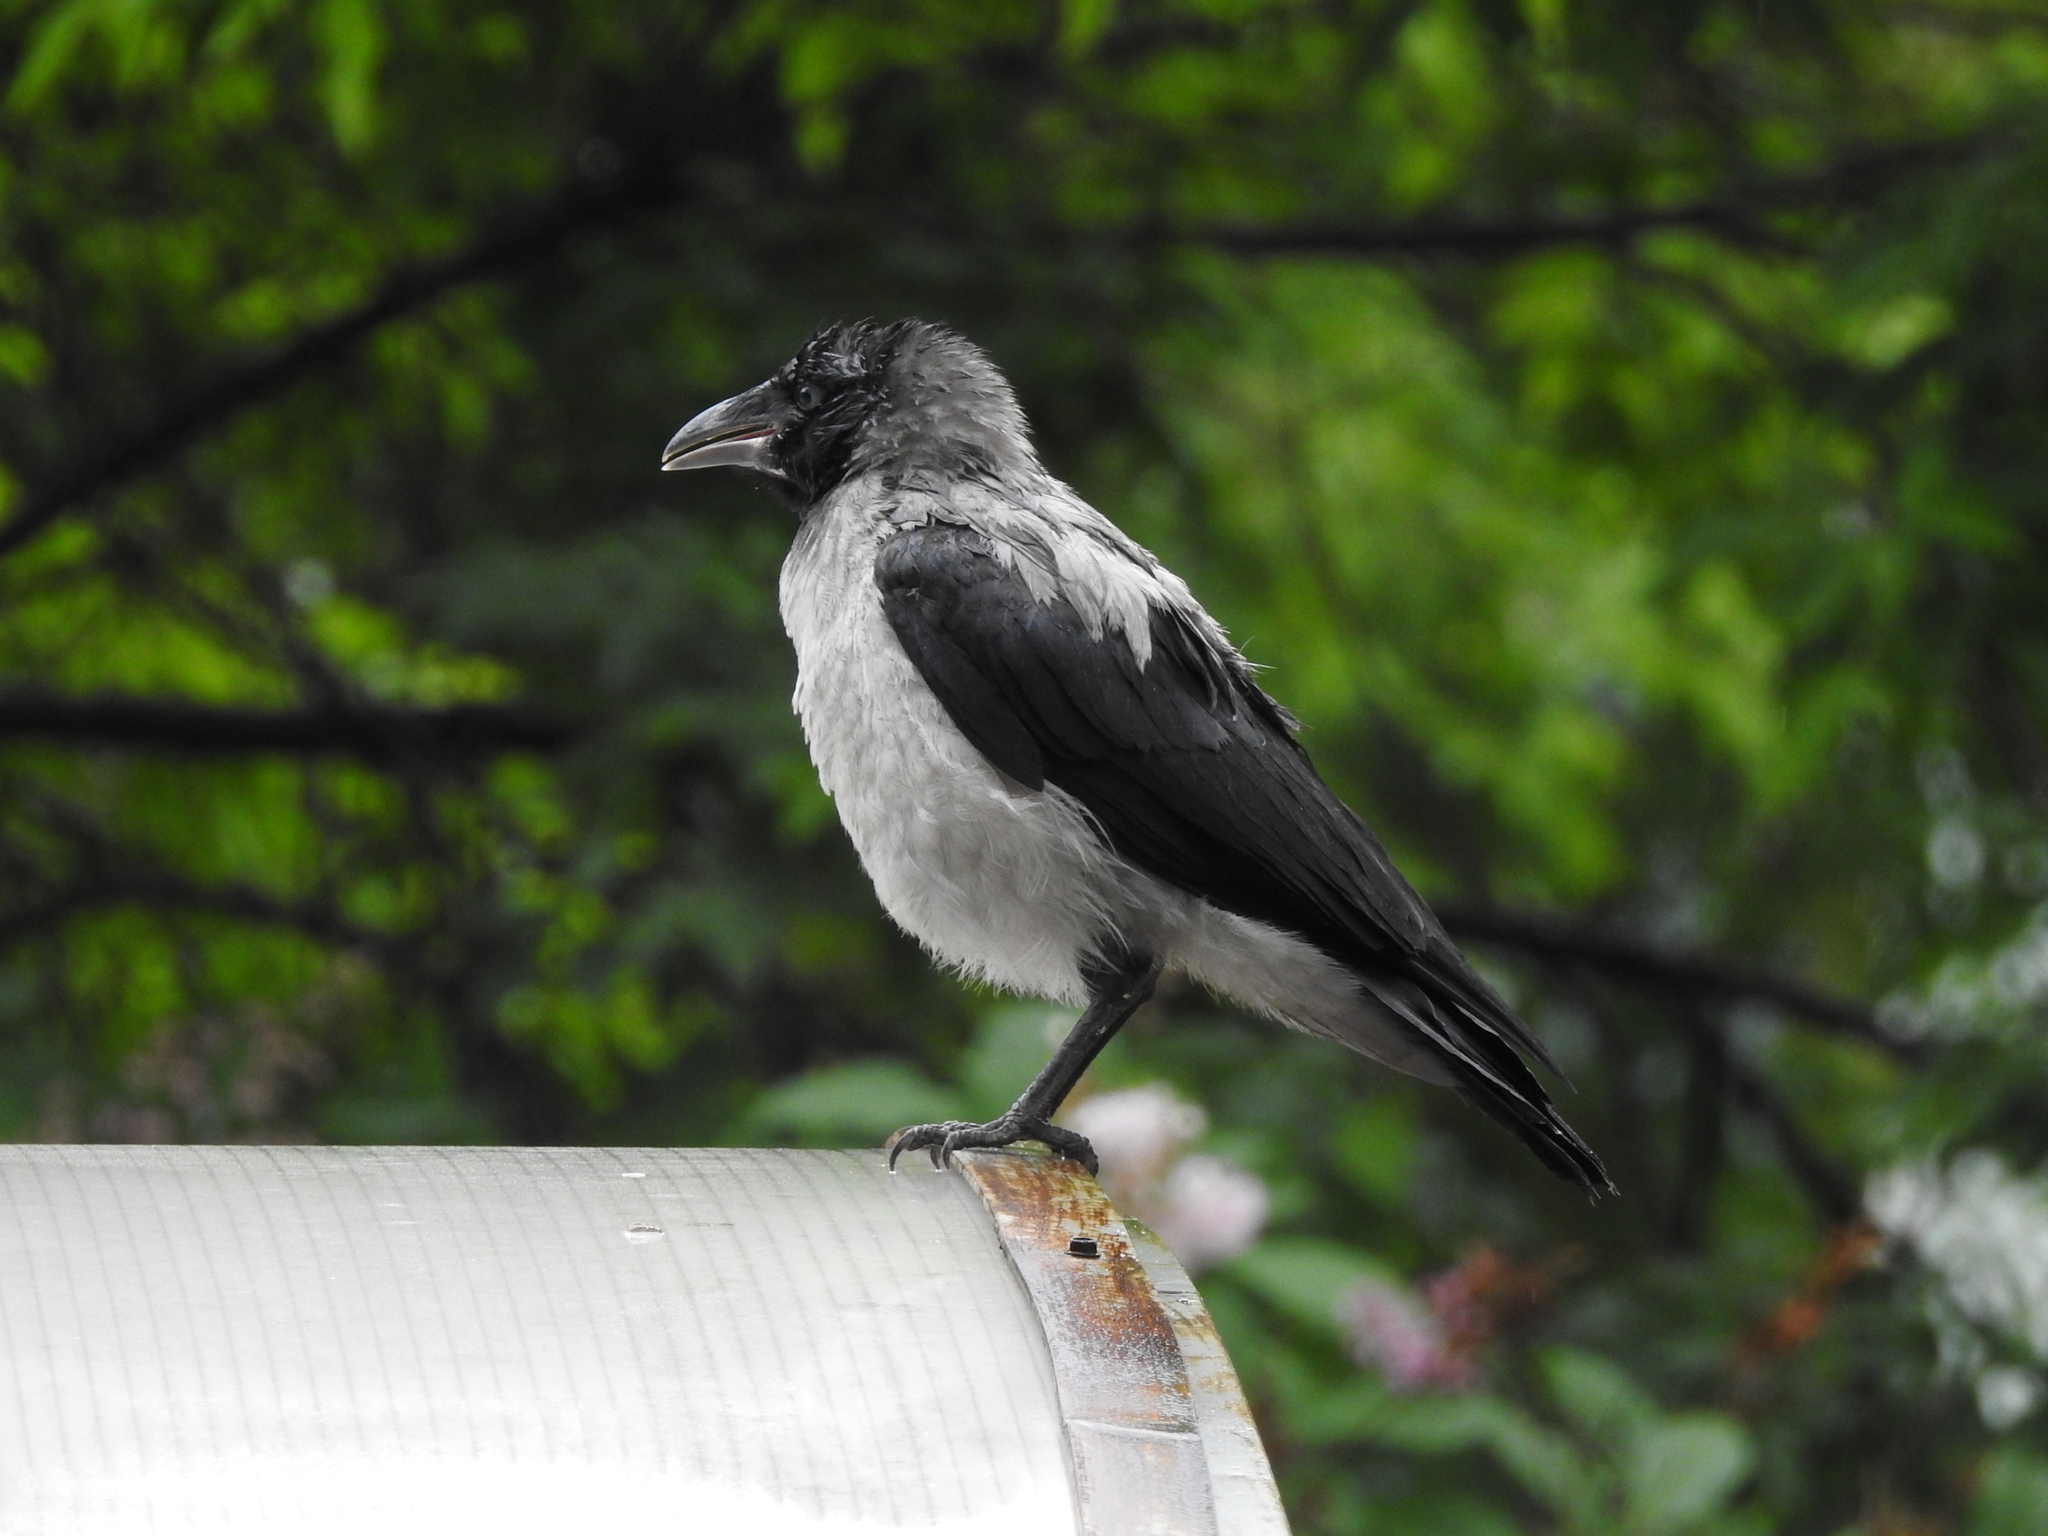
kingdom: Animalia
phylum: Chordata
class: Aves
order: Passeriformes
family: Corvidae
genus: Corvus
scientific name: Corvus cornix
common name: Hooded crow
